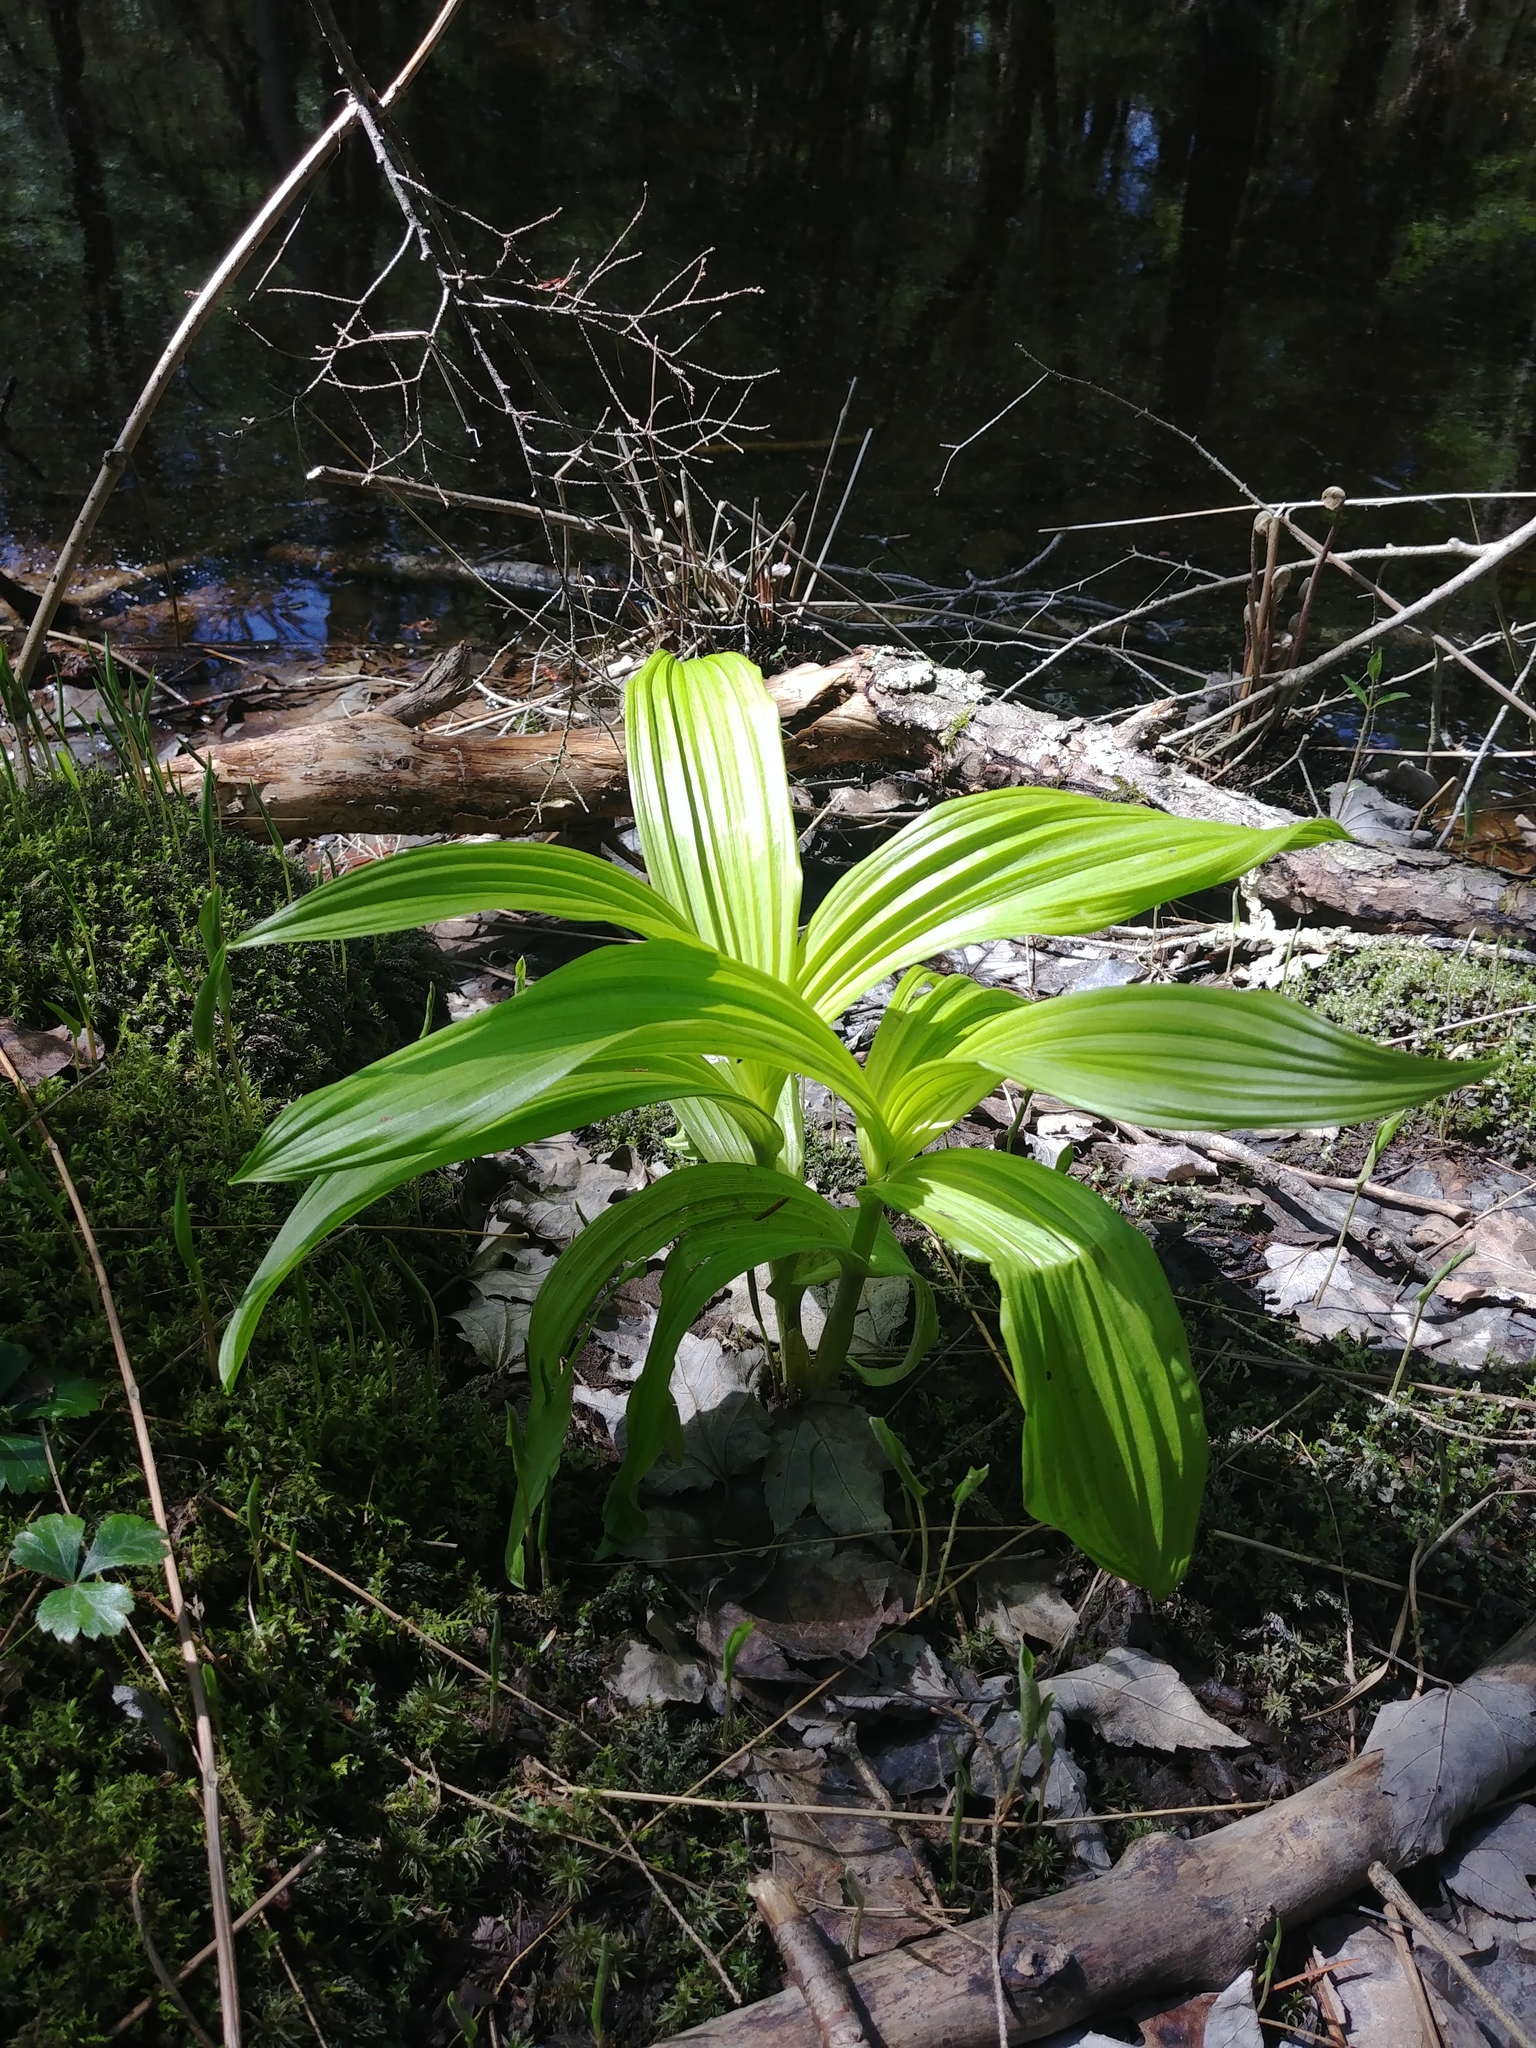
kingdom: Plantae
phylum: Tracheophyta
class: Liliopsida
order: Liliales
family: Melanthiaceae
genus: Veratrum
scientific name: Veratrum viride
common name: American false hellebore
